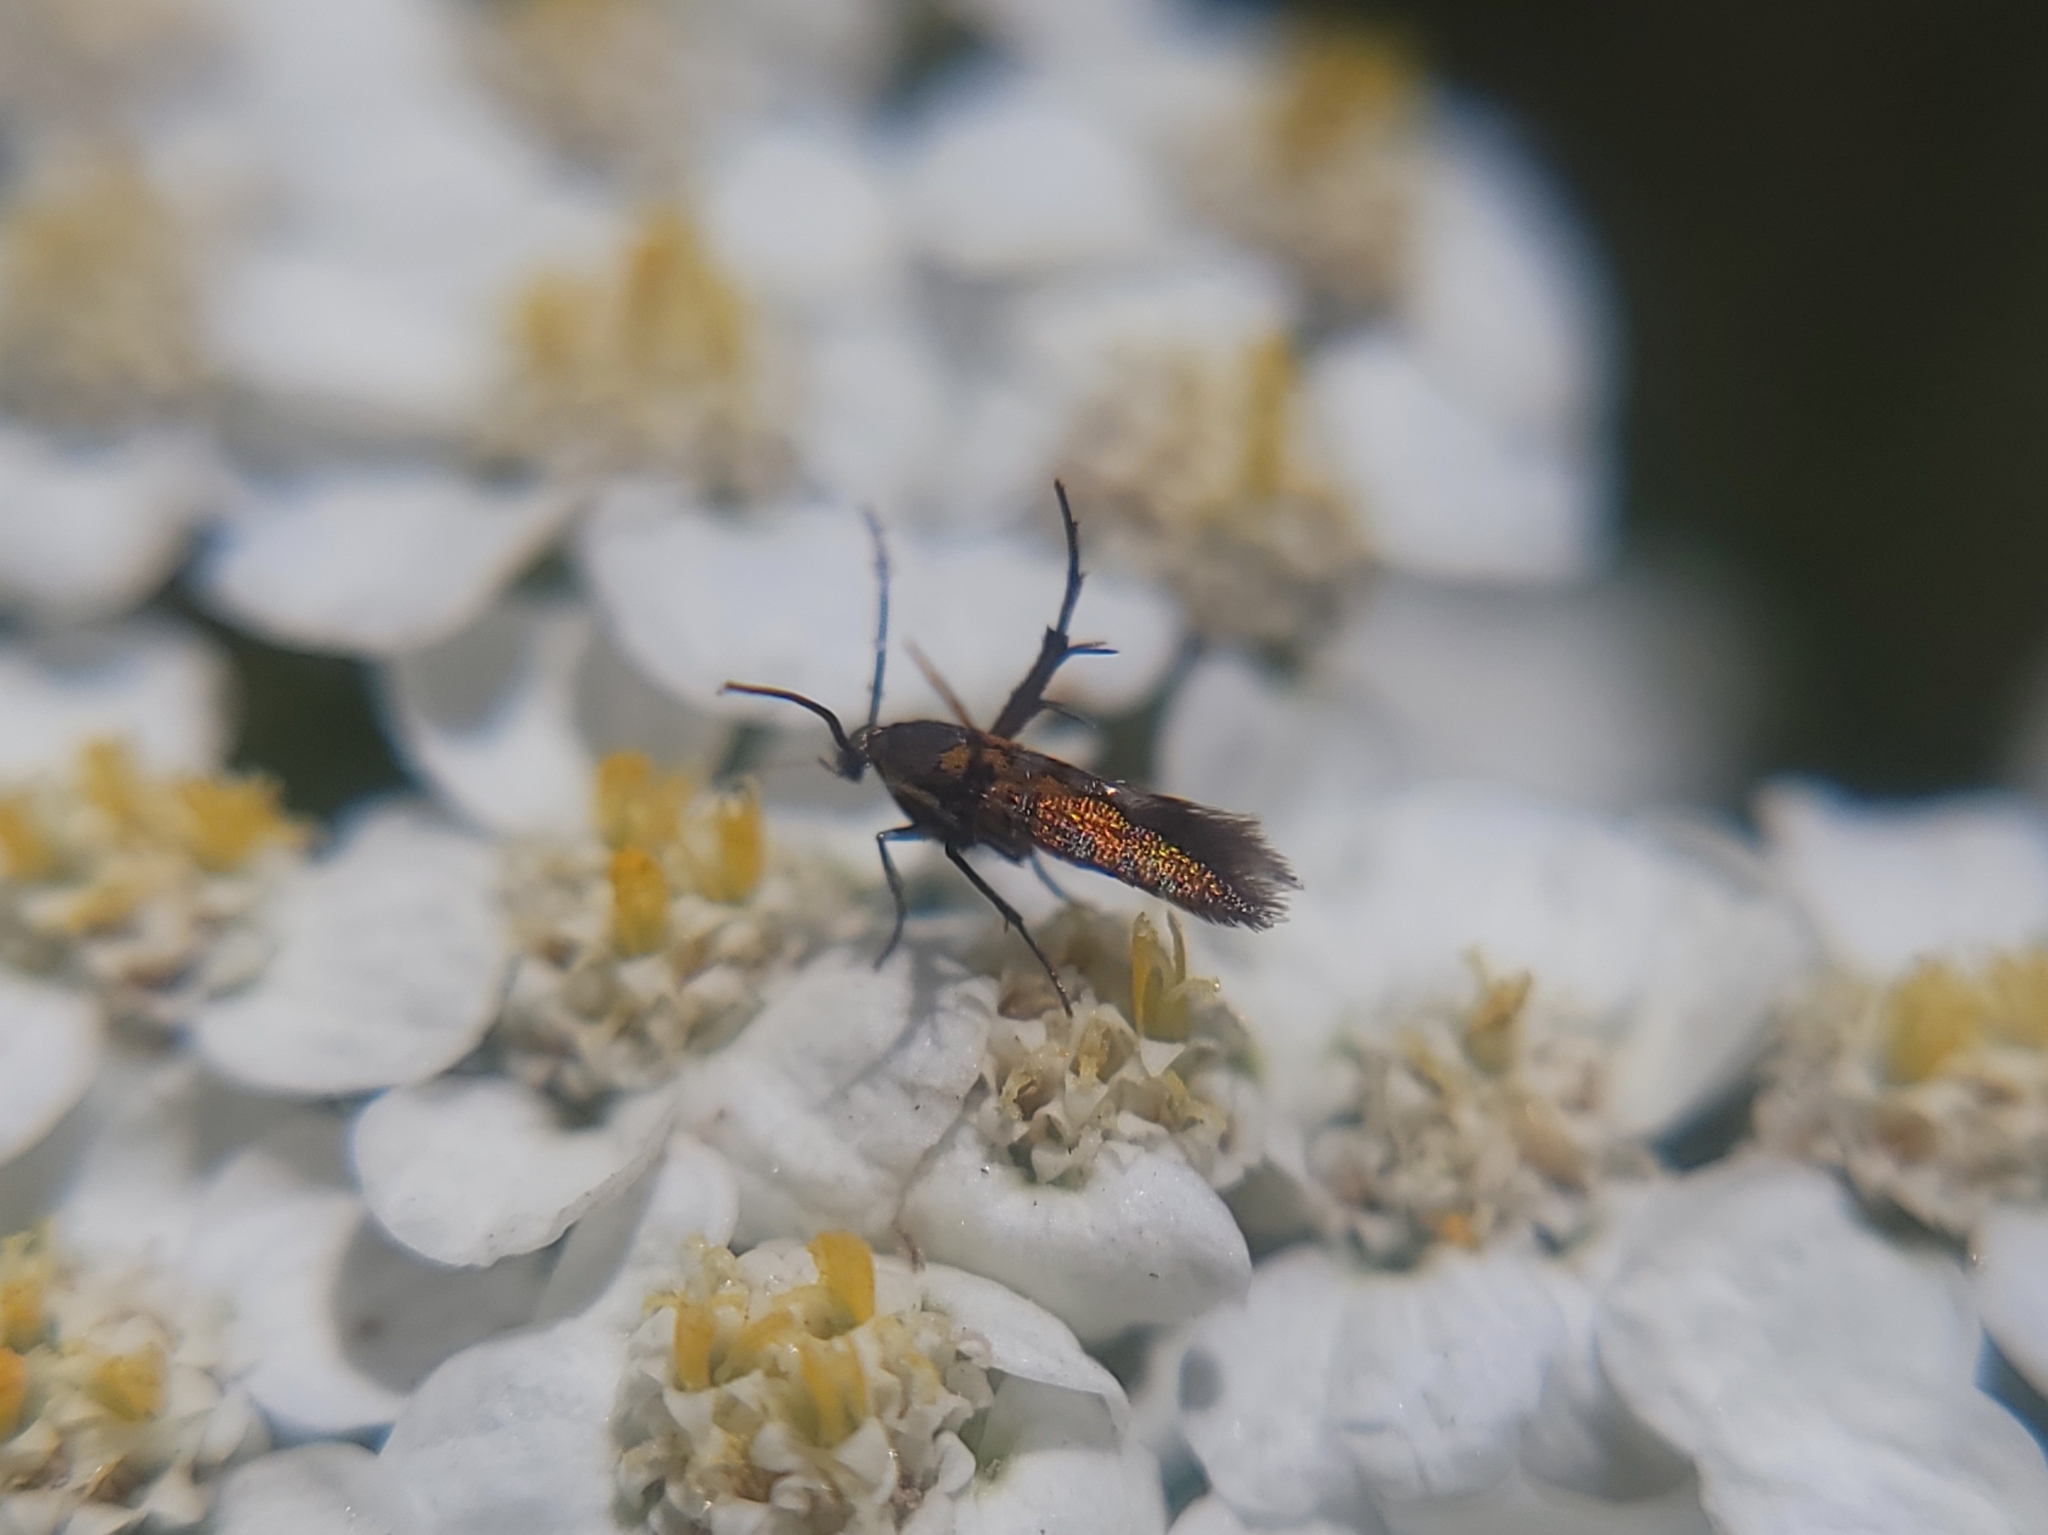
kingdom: Animalia
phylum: Arthropoda
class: Insecta
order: Lepidoptera
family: Heliodinidae
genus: Heliodines
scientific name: Heliodines Aetole tripunctella
